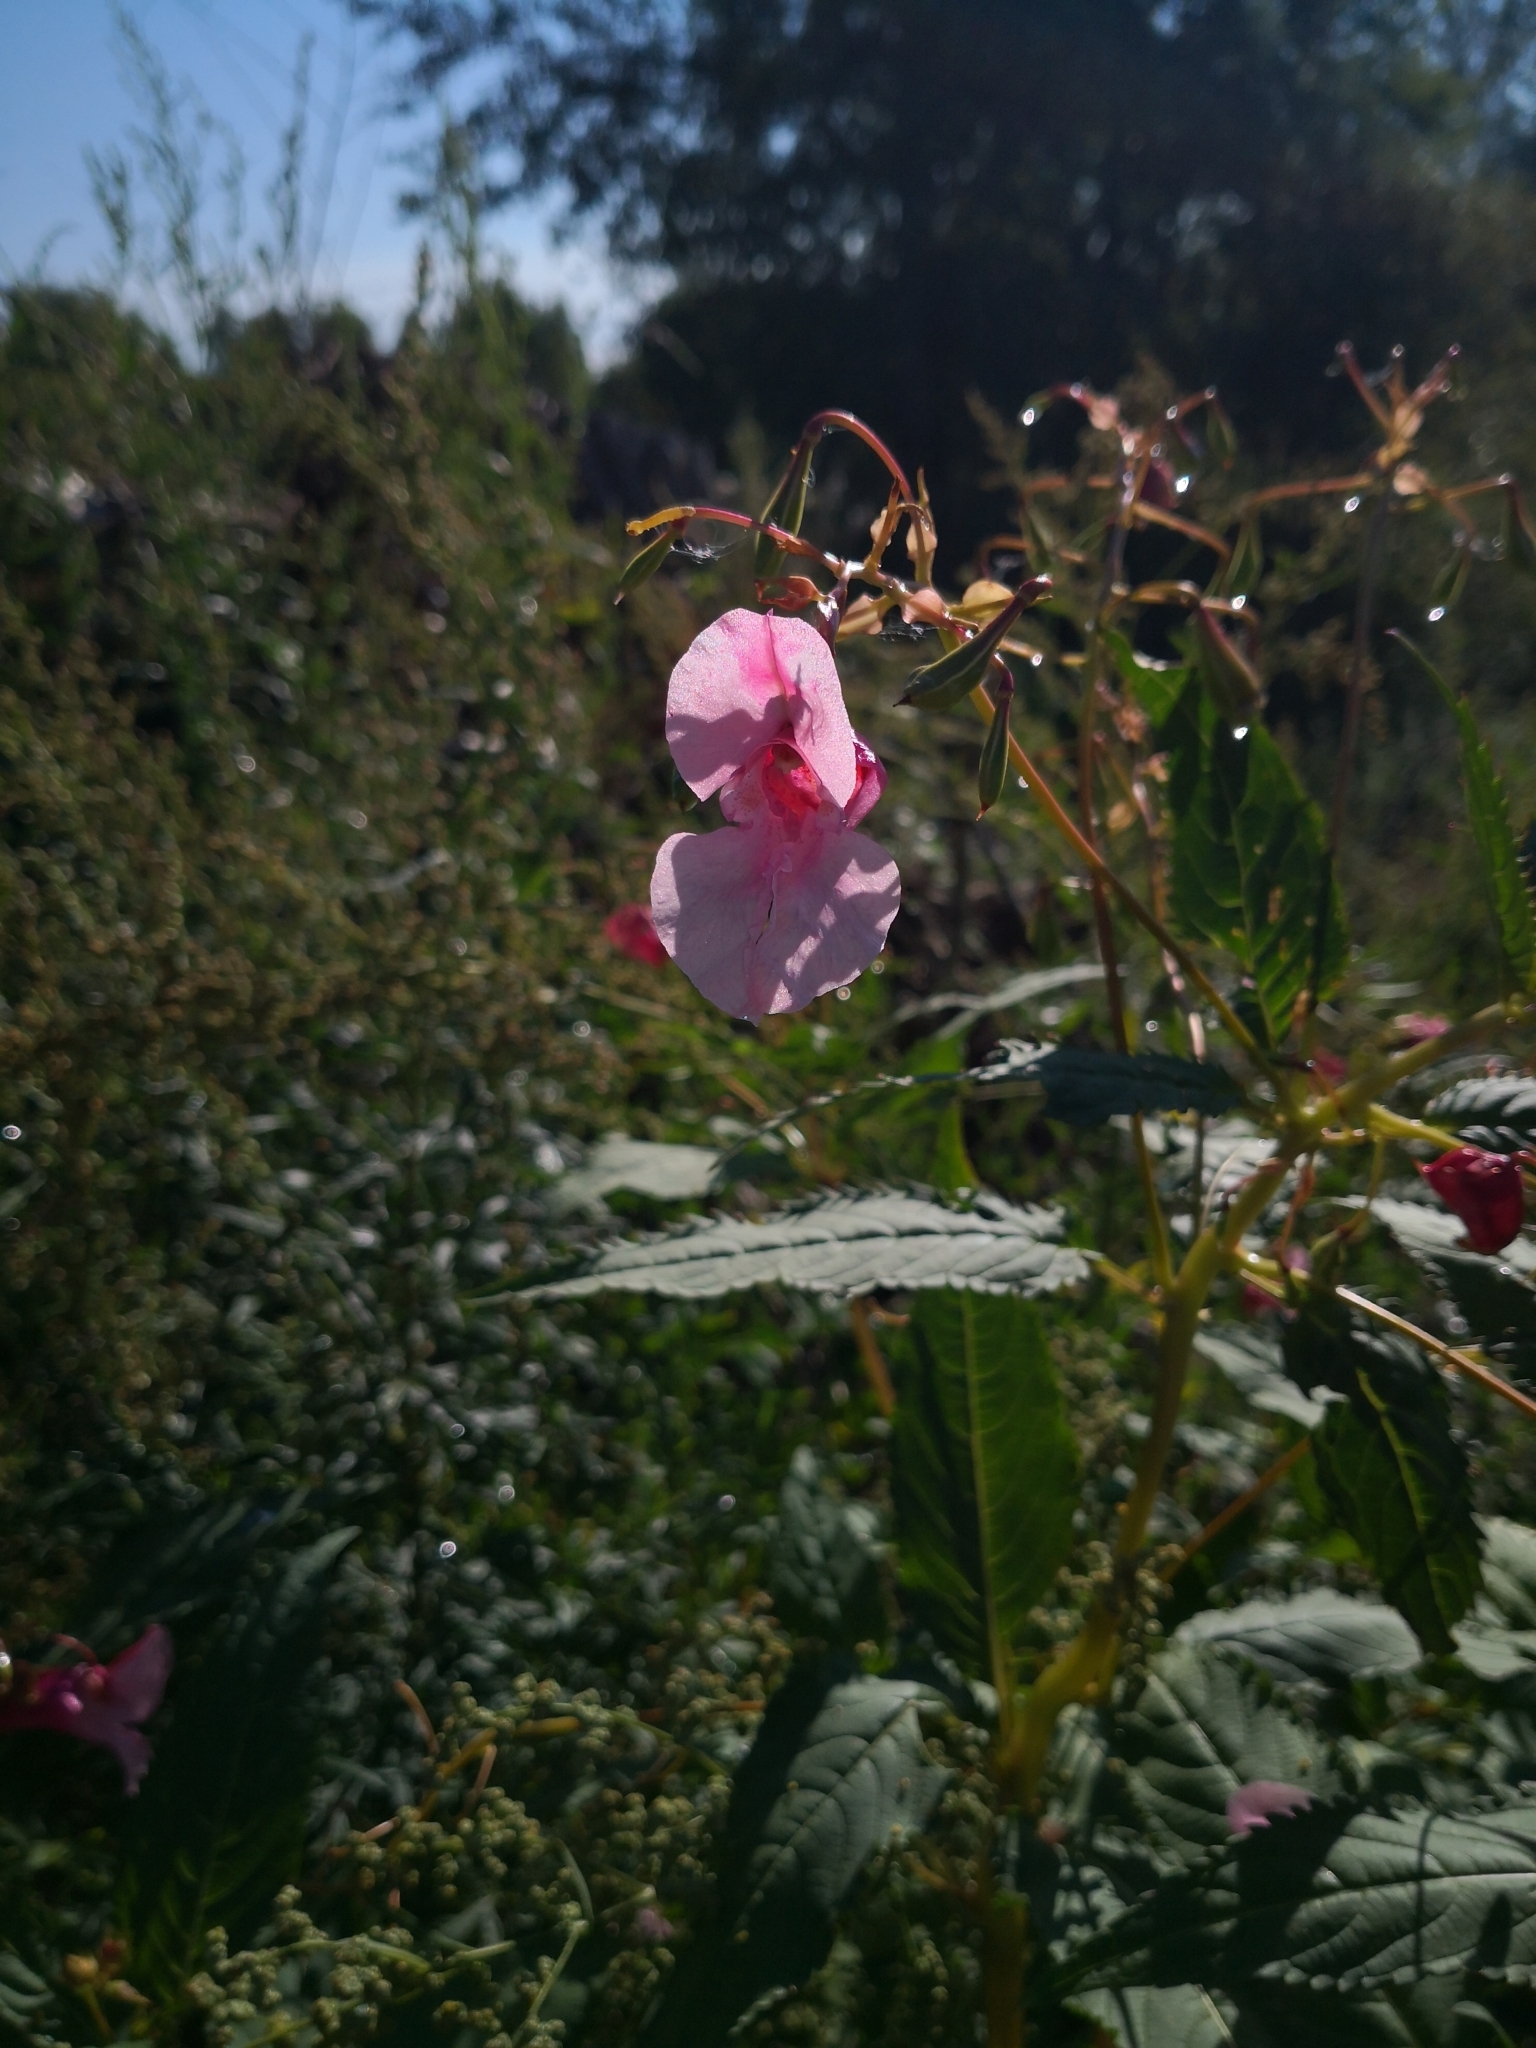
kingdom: Plantae
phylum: Tracheophyta
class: Magnoliopsida
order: Ericales
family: Balsaminaceae
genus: Impatiens
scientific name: Impatiens glandulifera
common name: Himalayan balsam
